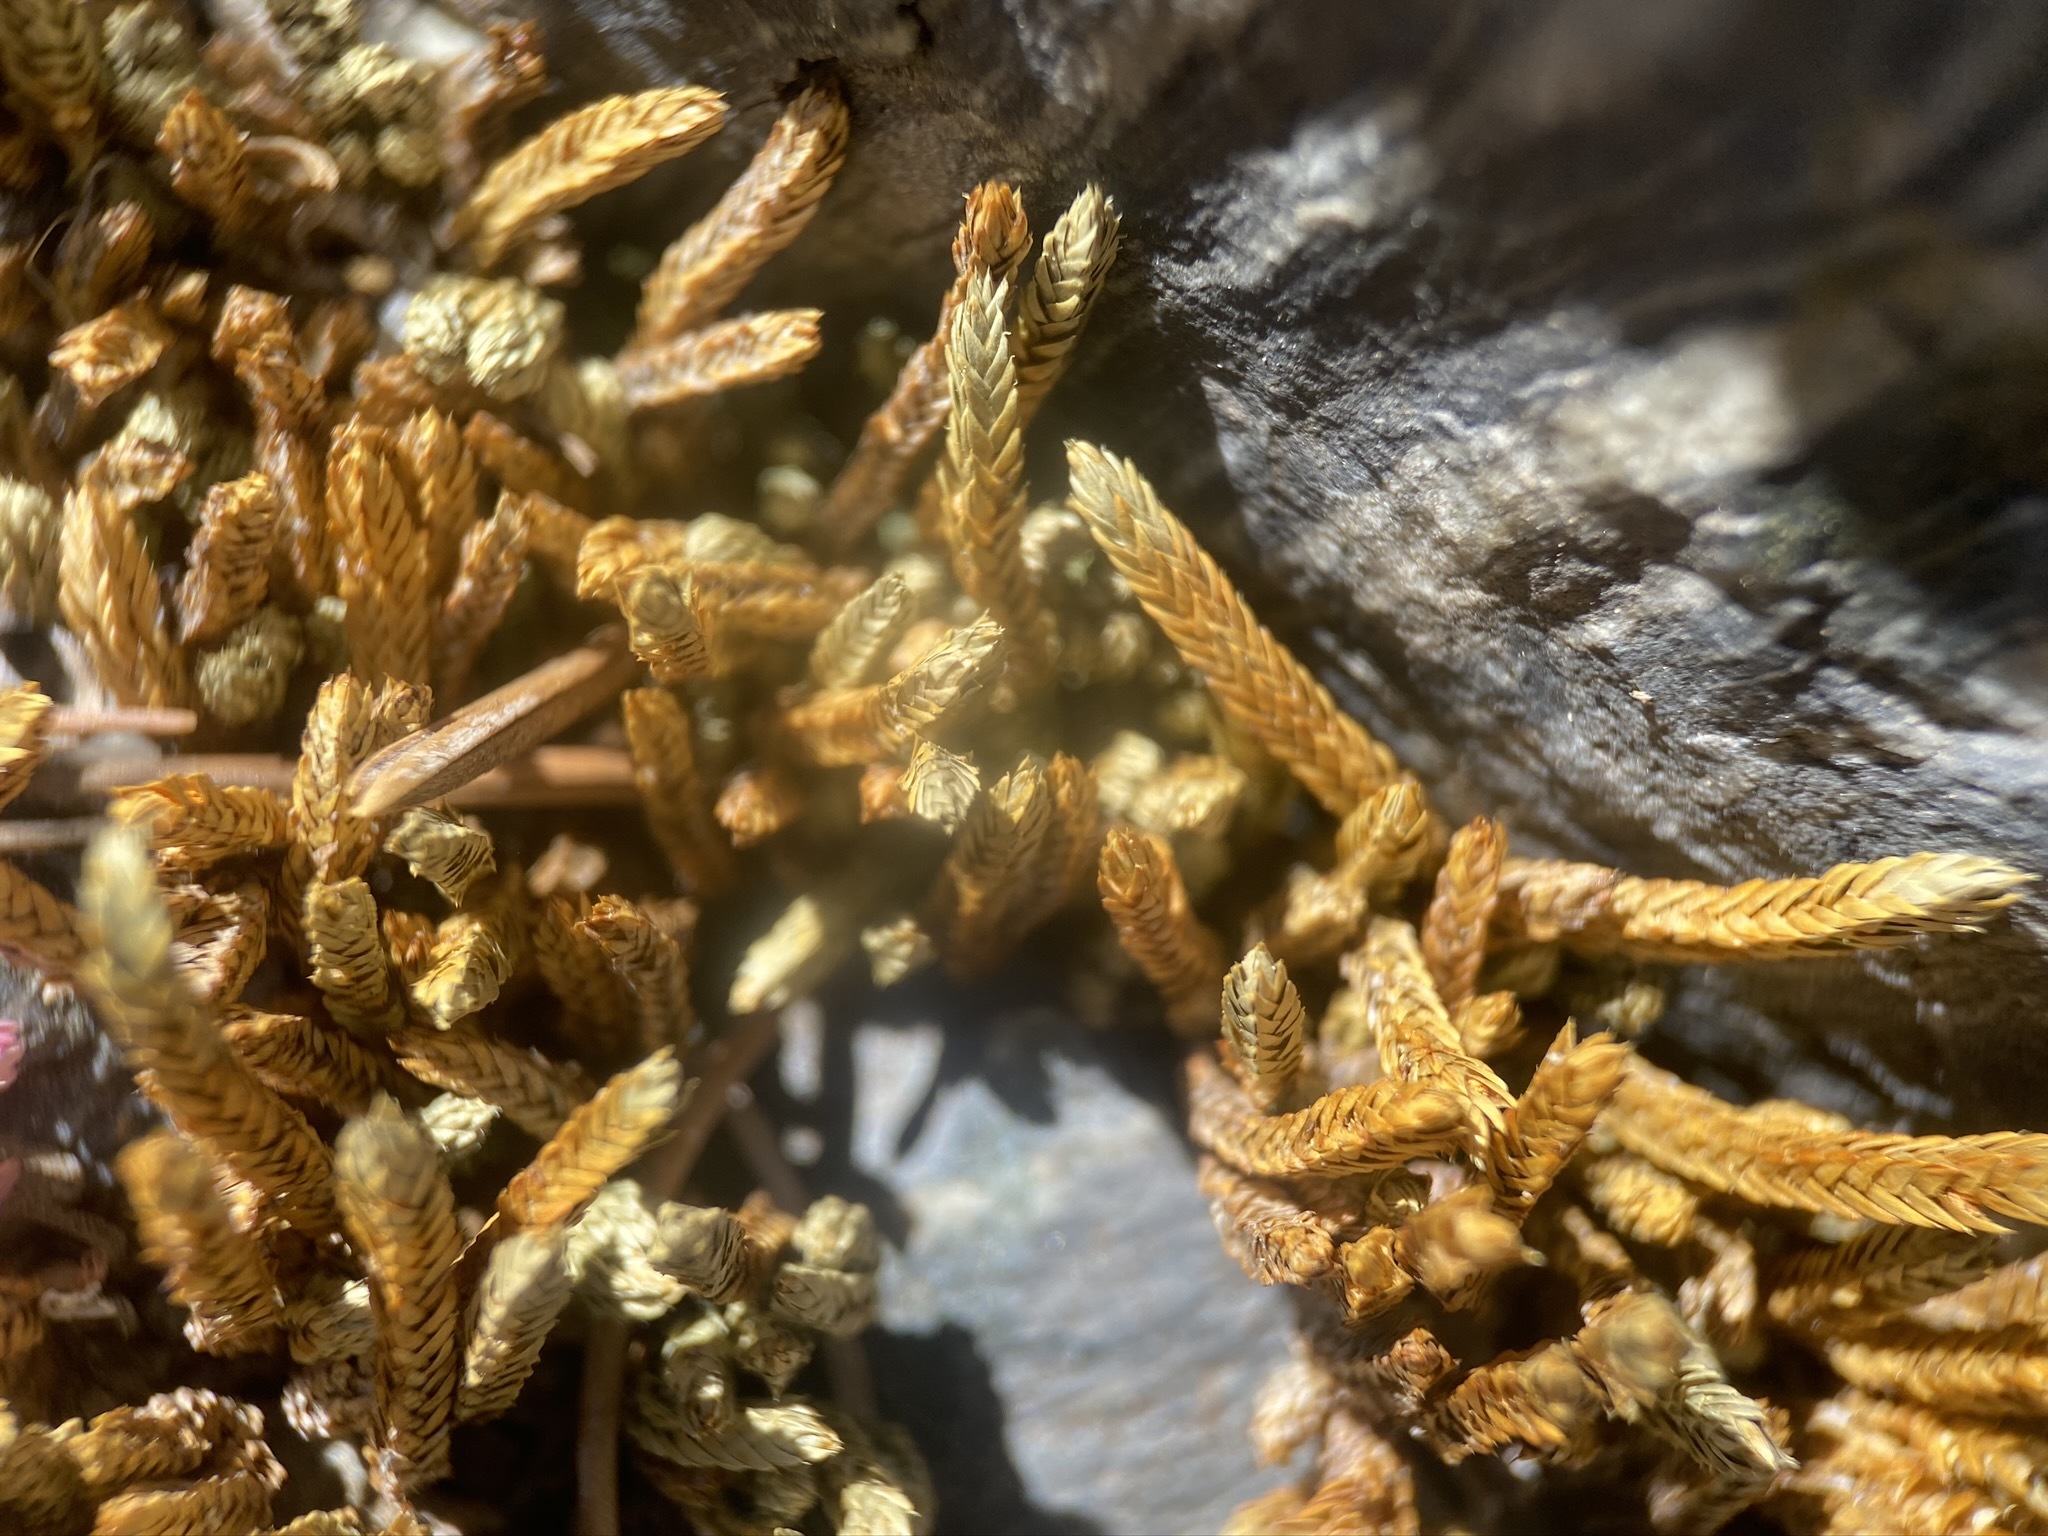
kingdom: Plantae
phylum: Tracheophyta
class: Lycopodiopsida
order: Selaginellales
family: Selaginellaceae
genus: Selaginella
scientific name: Selaginella watsonii
